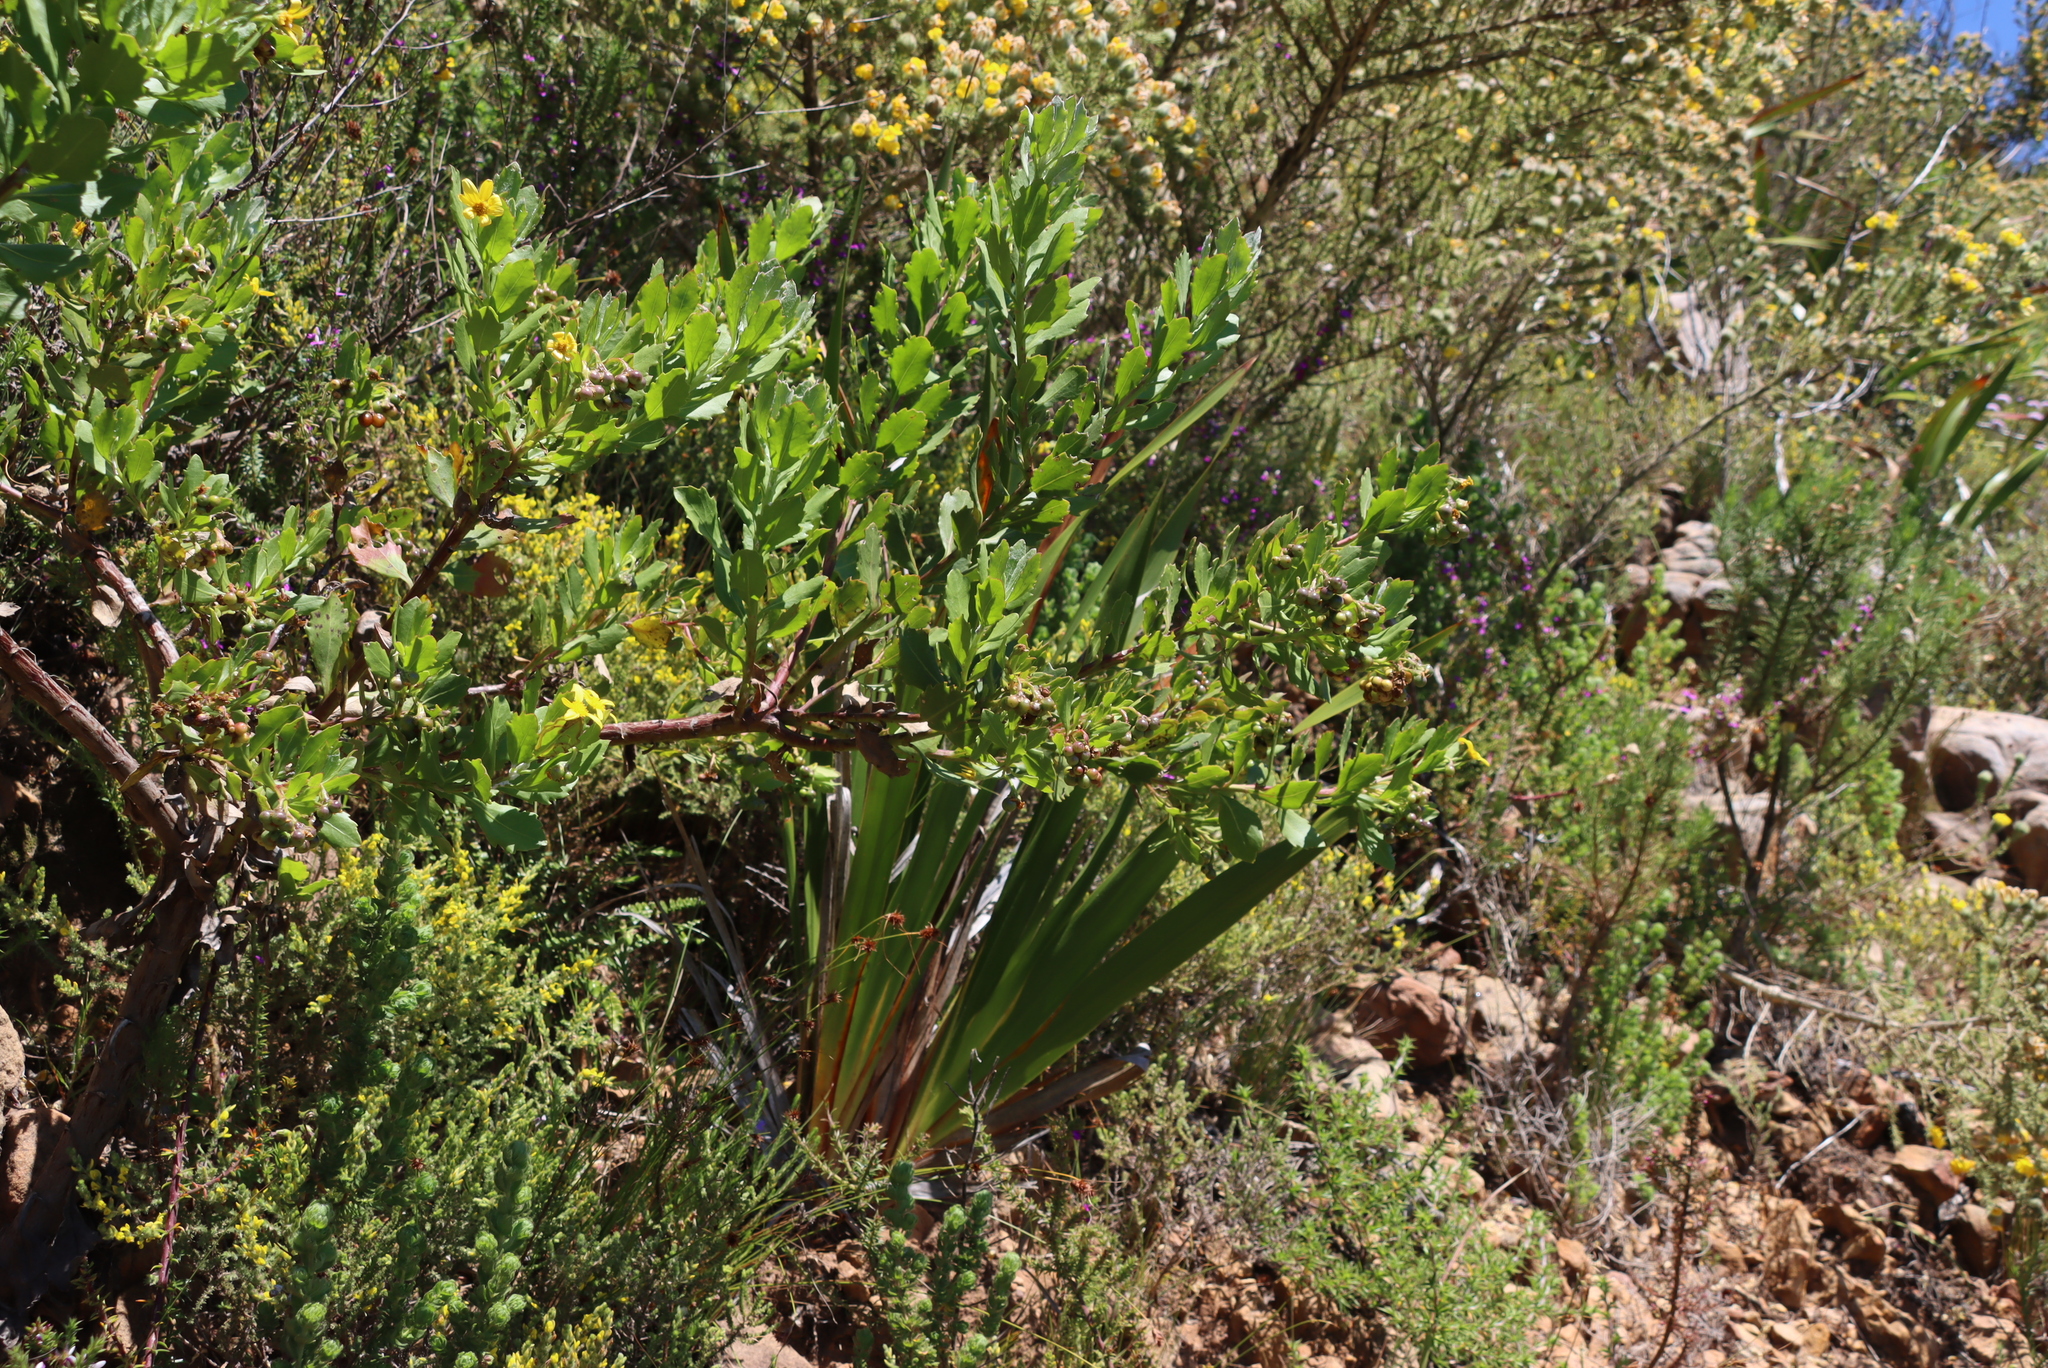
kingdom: Plantae
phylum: Tracheophyta
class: Magnoliopsida
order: Asterales
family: Asteraceae
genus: Osteospermum
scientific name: Osteospermum moniliferum
